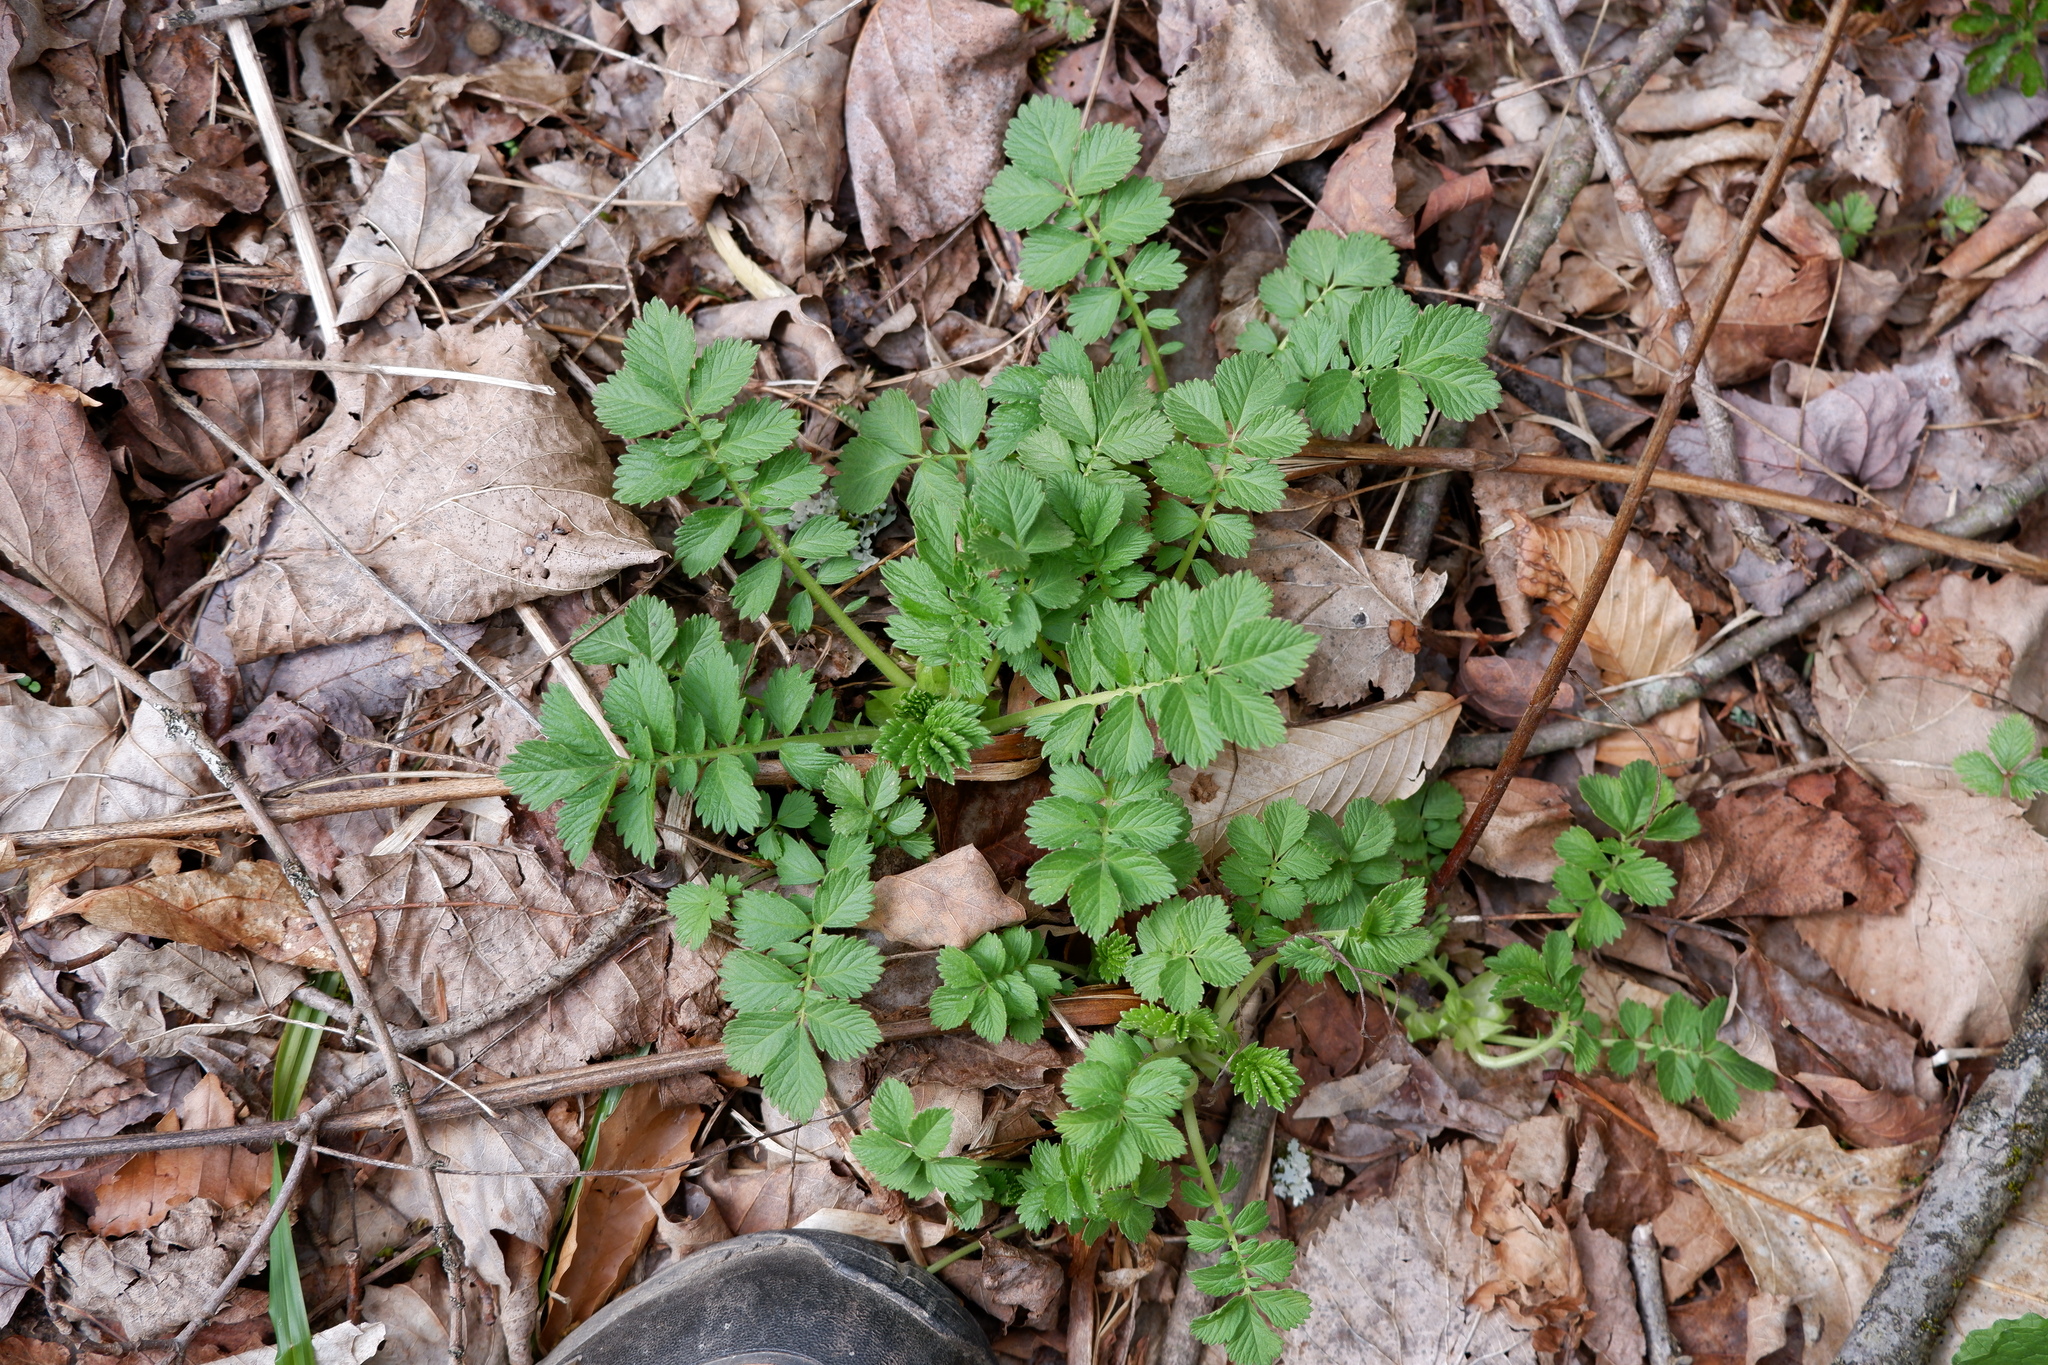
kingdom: Plantae
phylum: Tracheophyta
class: Magnoliopsida
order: Rosales
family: Rosaceae
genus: Agrimonia
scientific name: Agrimonia gryposepala
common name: Common agrimony
